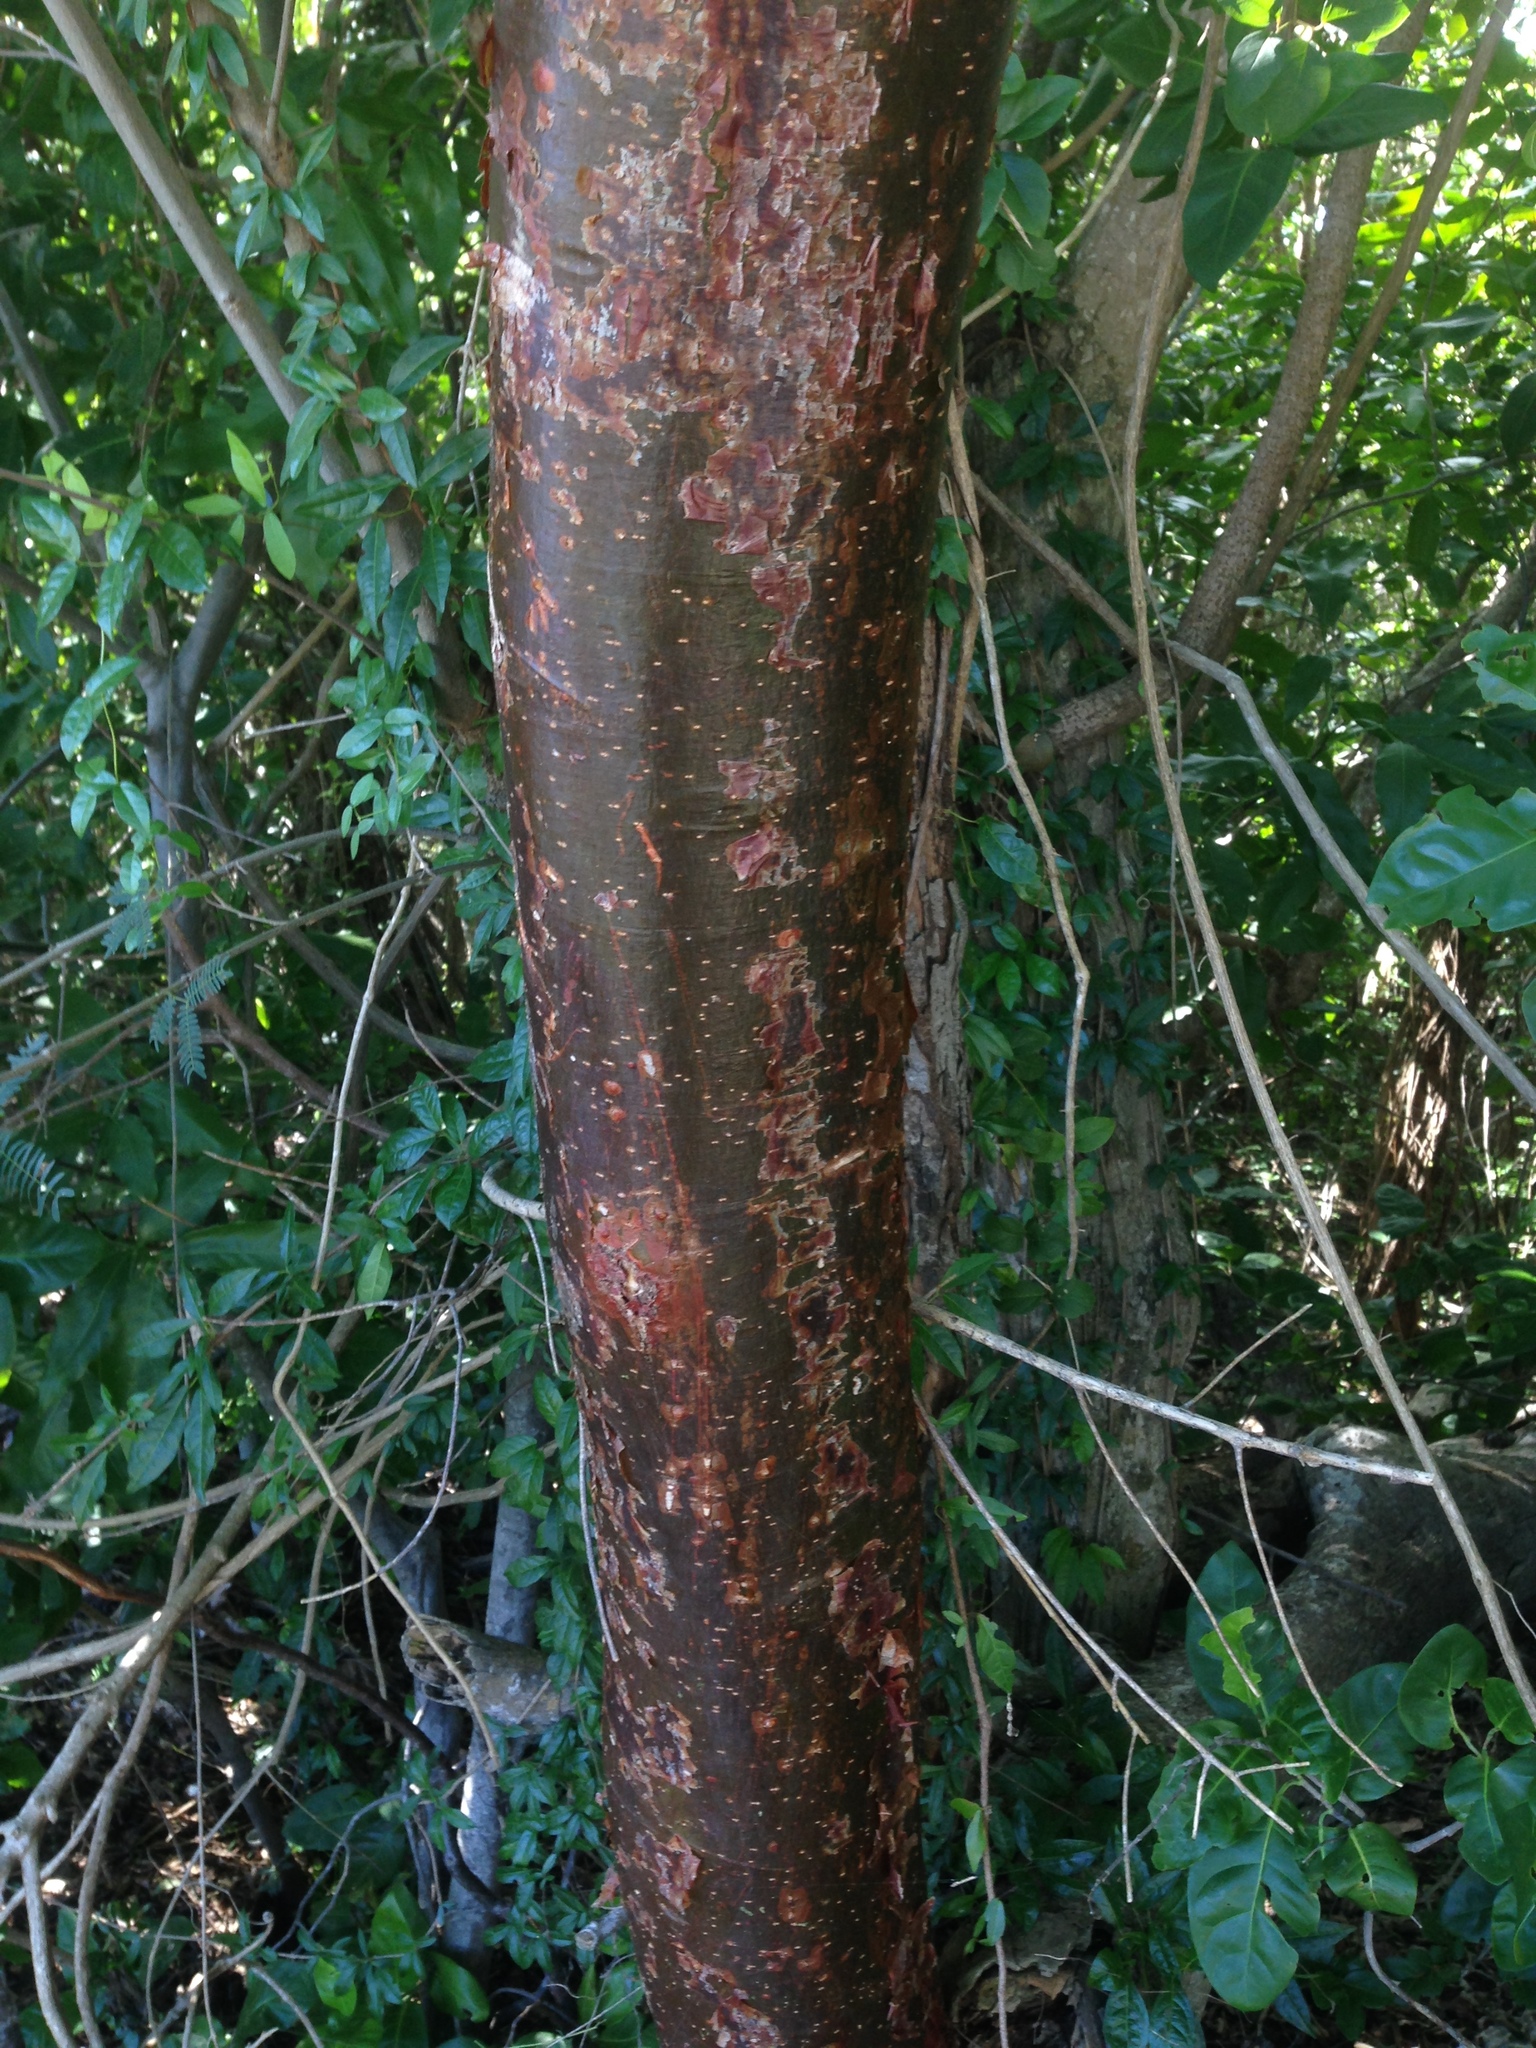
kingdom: Plantae
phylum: Tracheophyta
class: Magnoliopsida
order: Sapindales
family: Burseraceae
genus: Bursera
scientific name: Bursera simaruba
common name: Turpentine tree
